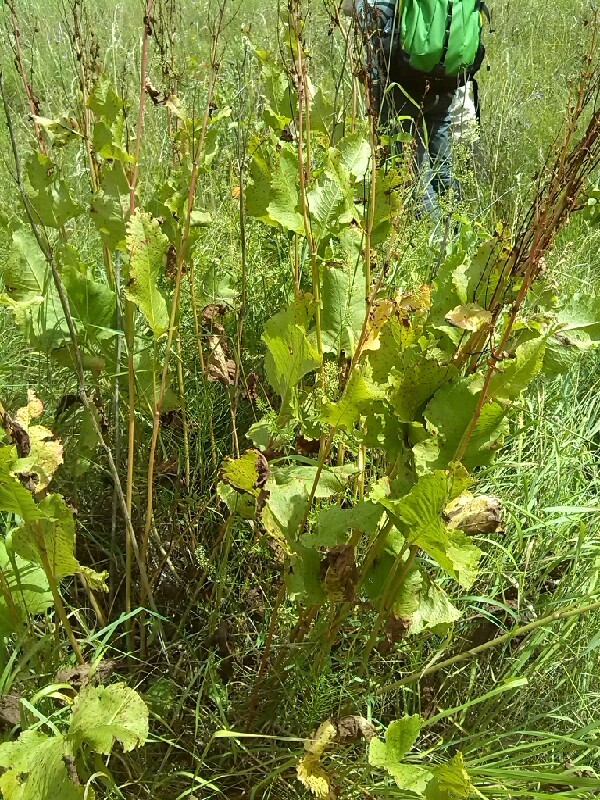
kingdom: Plantae
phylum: Tracheophyta
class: Magnoliopsida
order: Caryophyllales
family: Polygonaceae
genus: Rumex
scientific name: Rumex confertus
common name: Russian dock
